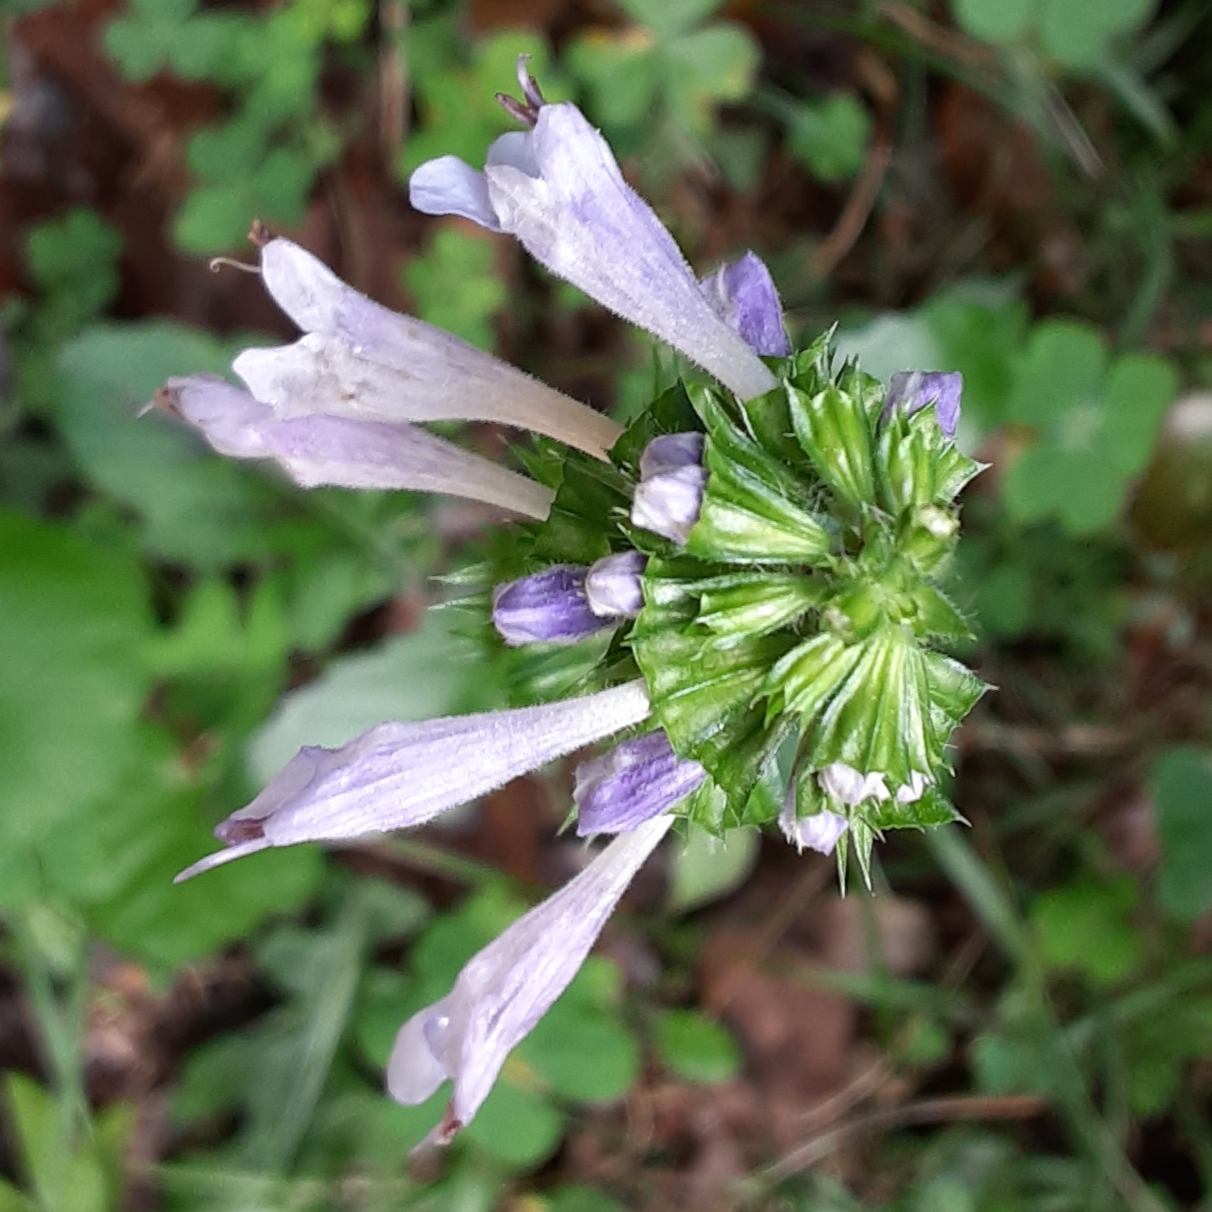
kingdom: Plantae
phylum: Tracheophyta
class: Magnoliopsida
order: Lamiales
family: Lamiaceae
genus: Salvia
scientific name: Salvia lyrata
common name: Cancerweed
